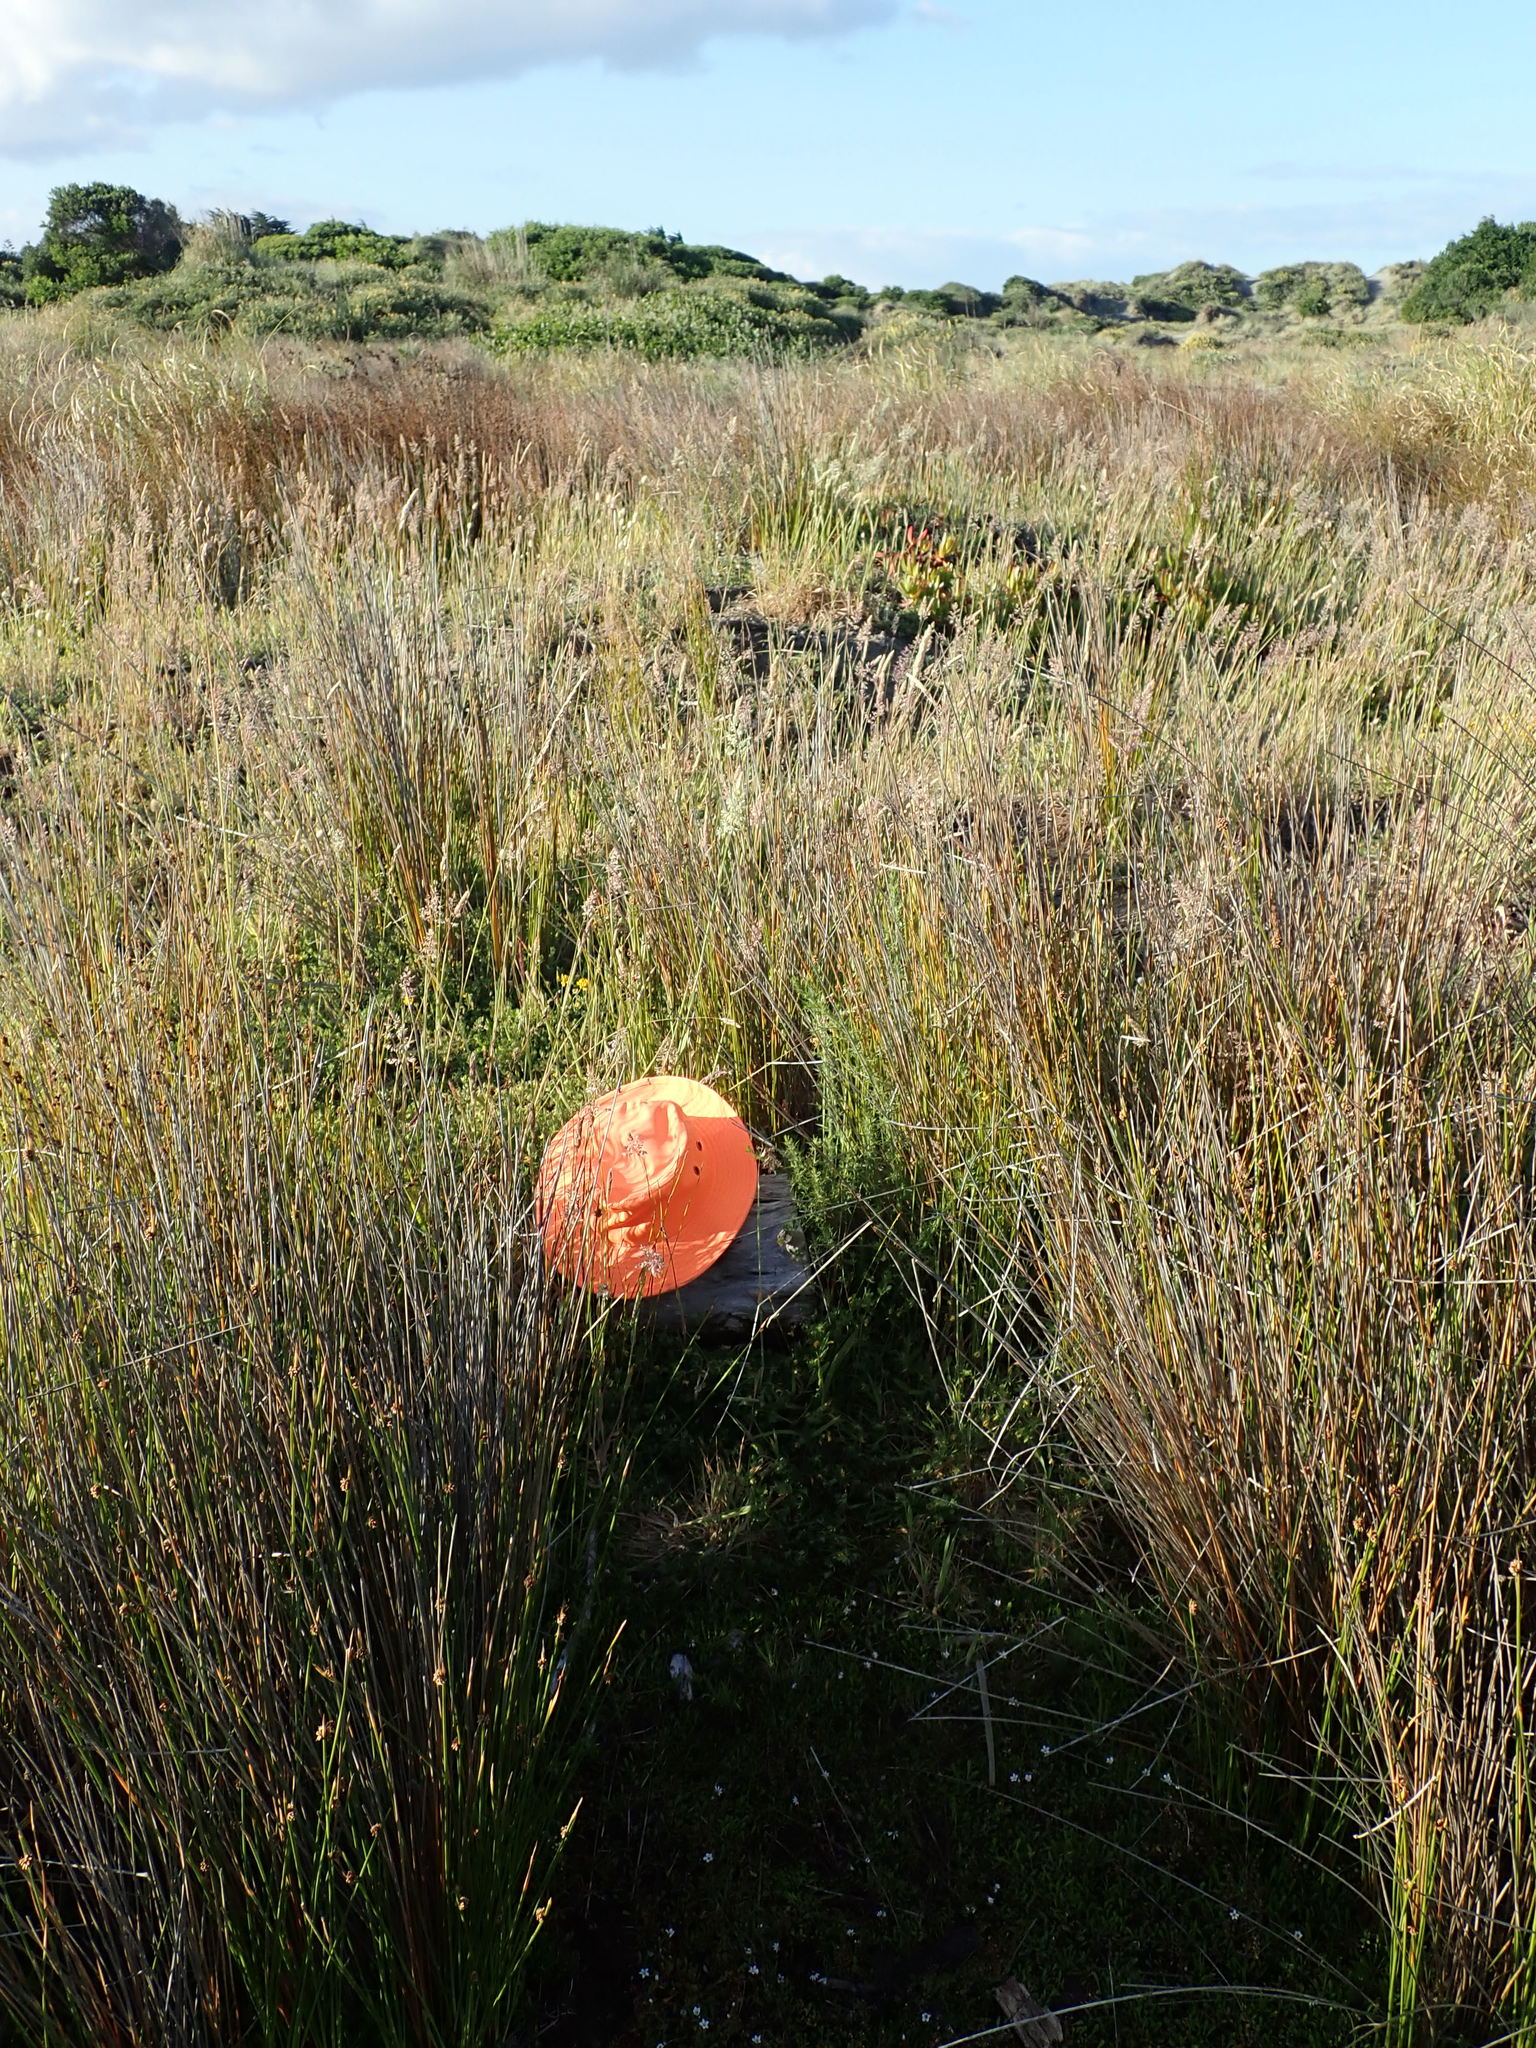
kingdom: Plantae
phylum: Tracheophyta
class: Magnoliopsida
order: Fabales
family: Fabaceae
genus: Lotus
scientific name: Lotus pedunculatus
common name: Greater birdsfoot-trefoil
